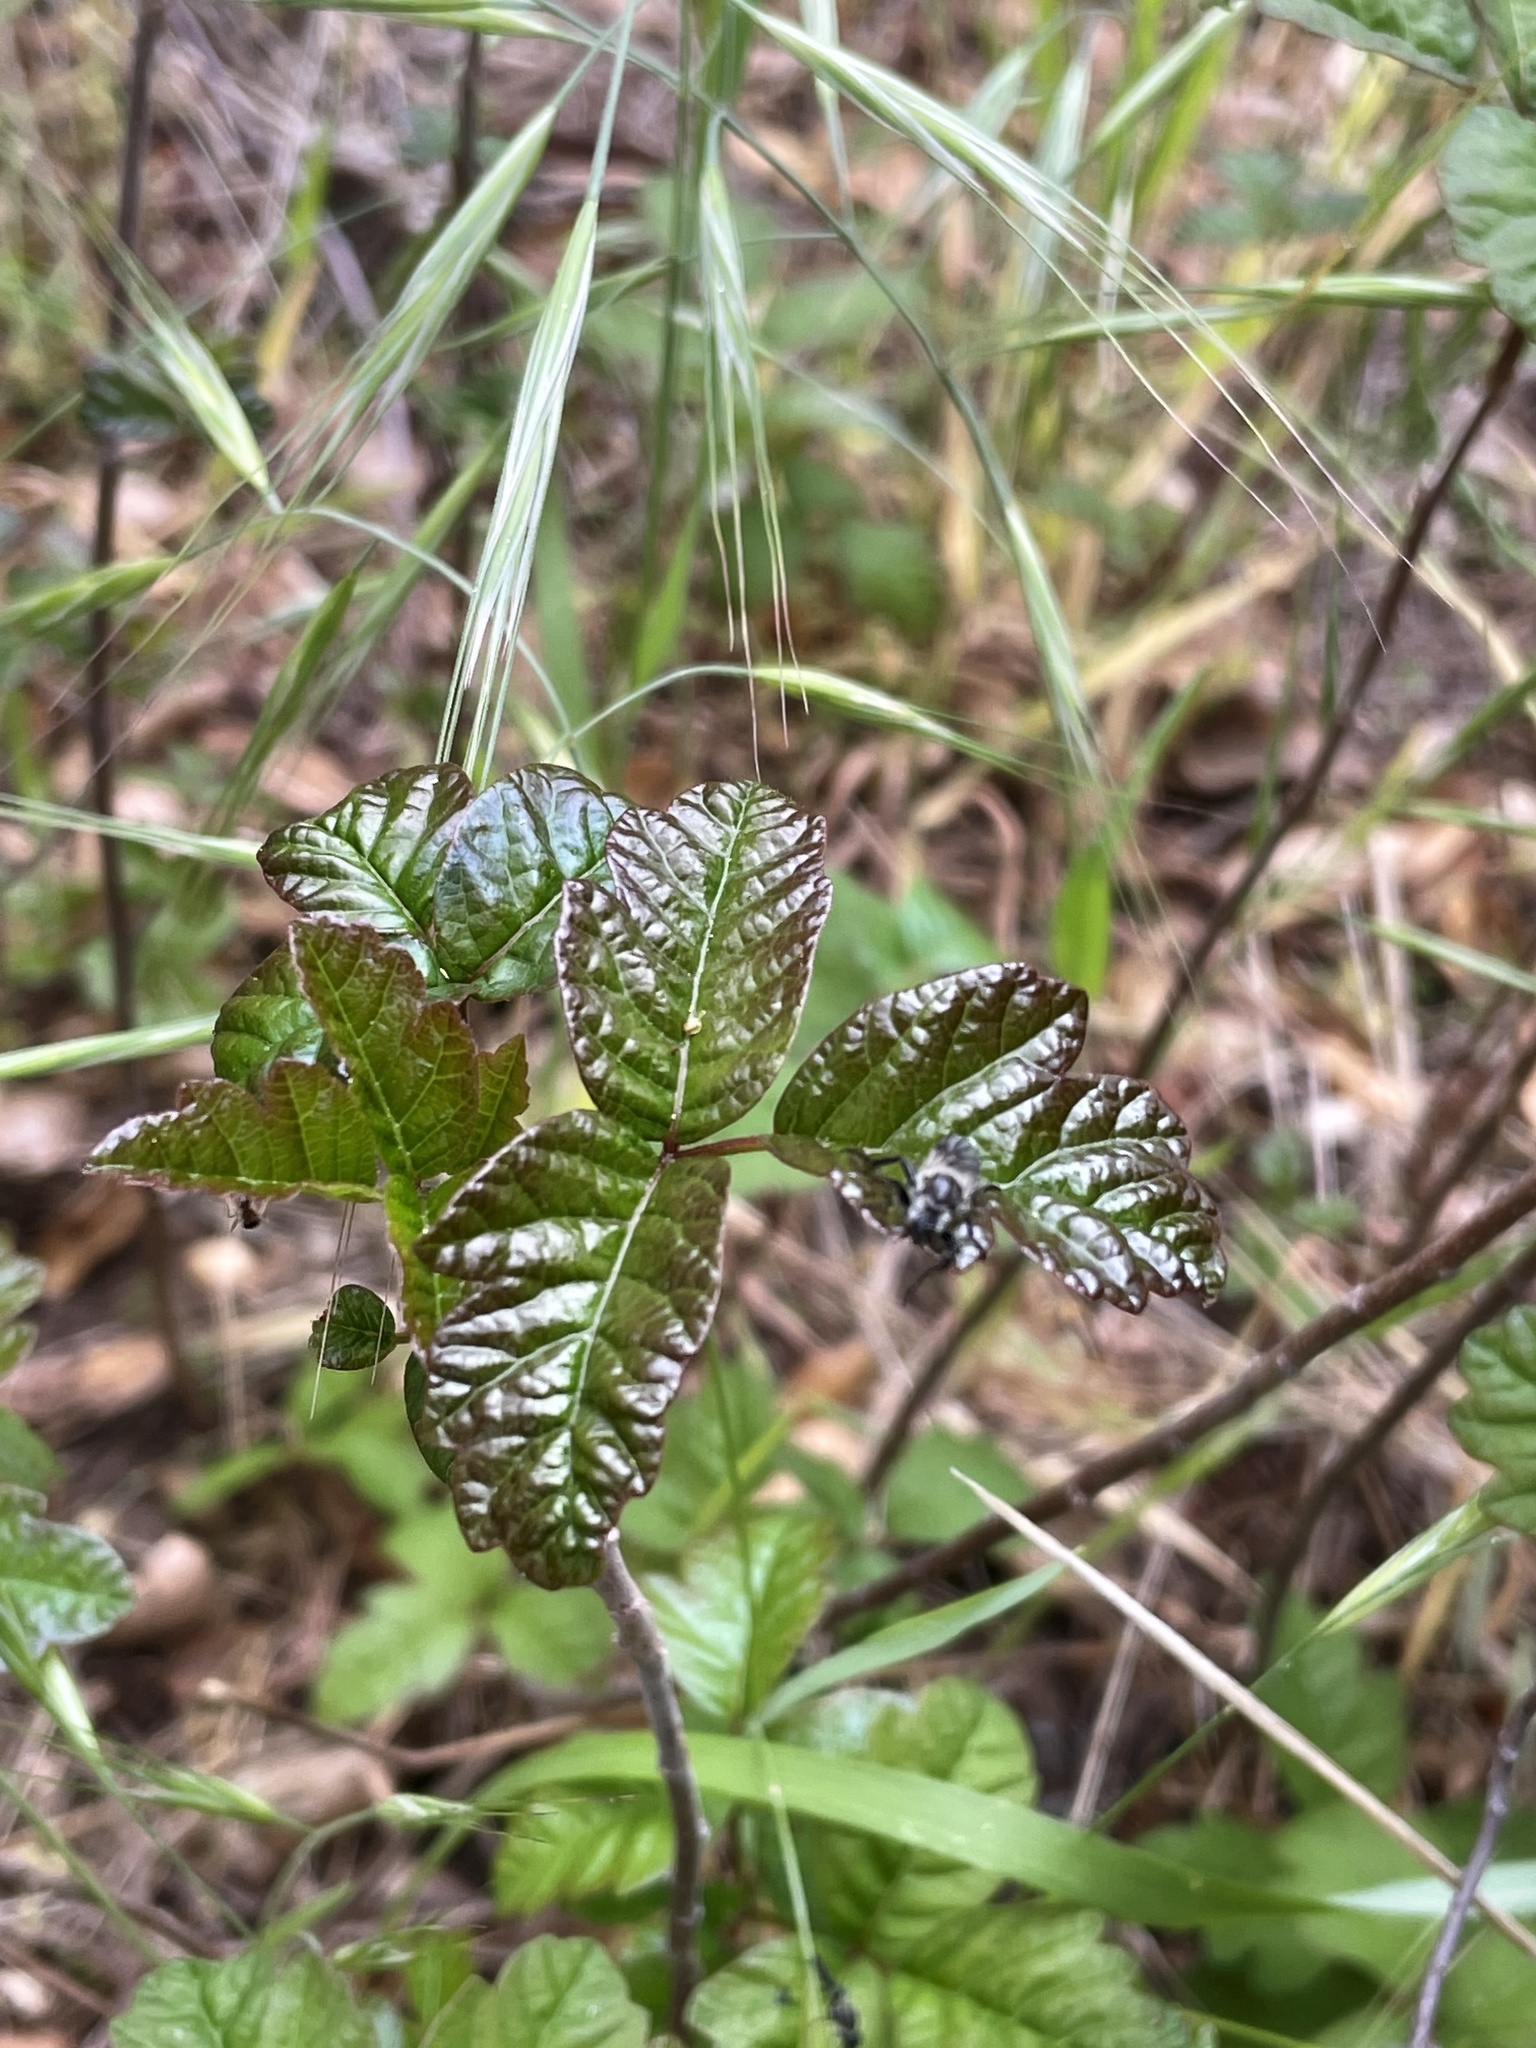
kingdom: Plantae
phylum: Tracheophyta
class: Magnoliopsida
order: Sapindales
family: Anacardiaceae
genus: Toxicodendron
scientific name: Toxicodendron diversilobum
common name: Pacific poison-oak
